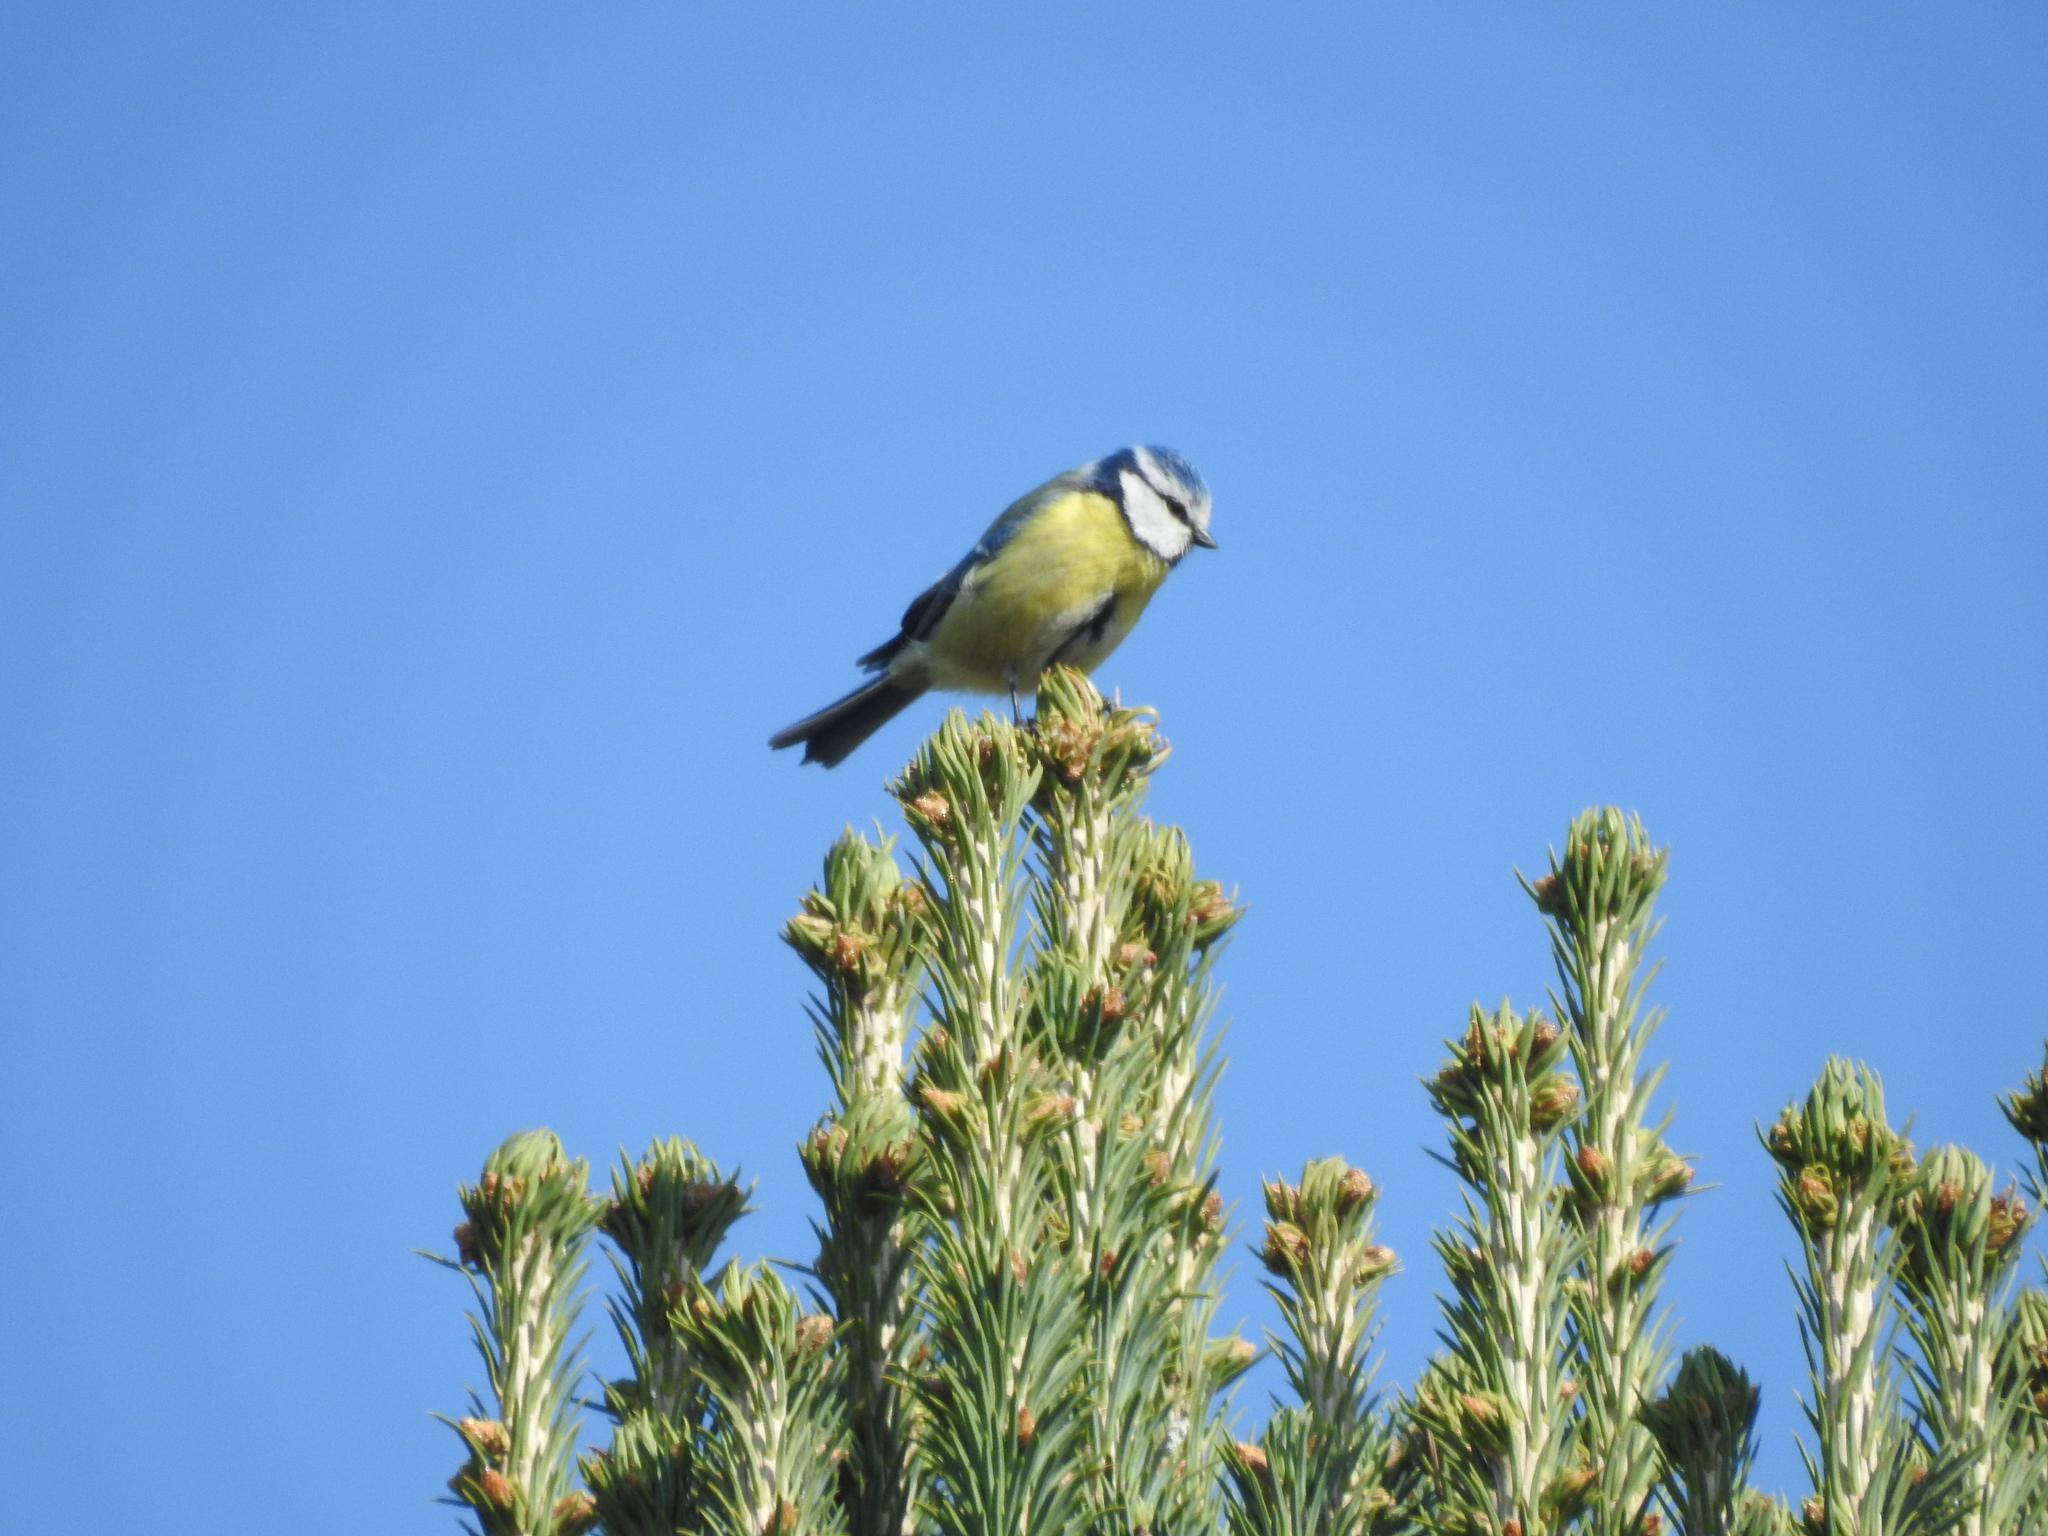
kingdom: Animalia
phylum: Chordata
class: Aves
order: Passeriformes
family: Paridae
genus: Cyanistes
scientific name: Cyanistes caeruleus
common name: Eurasian blue tit
